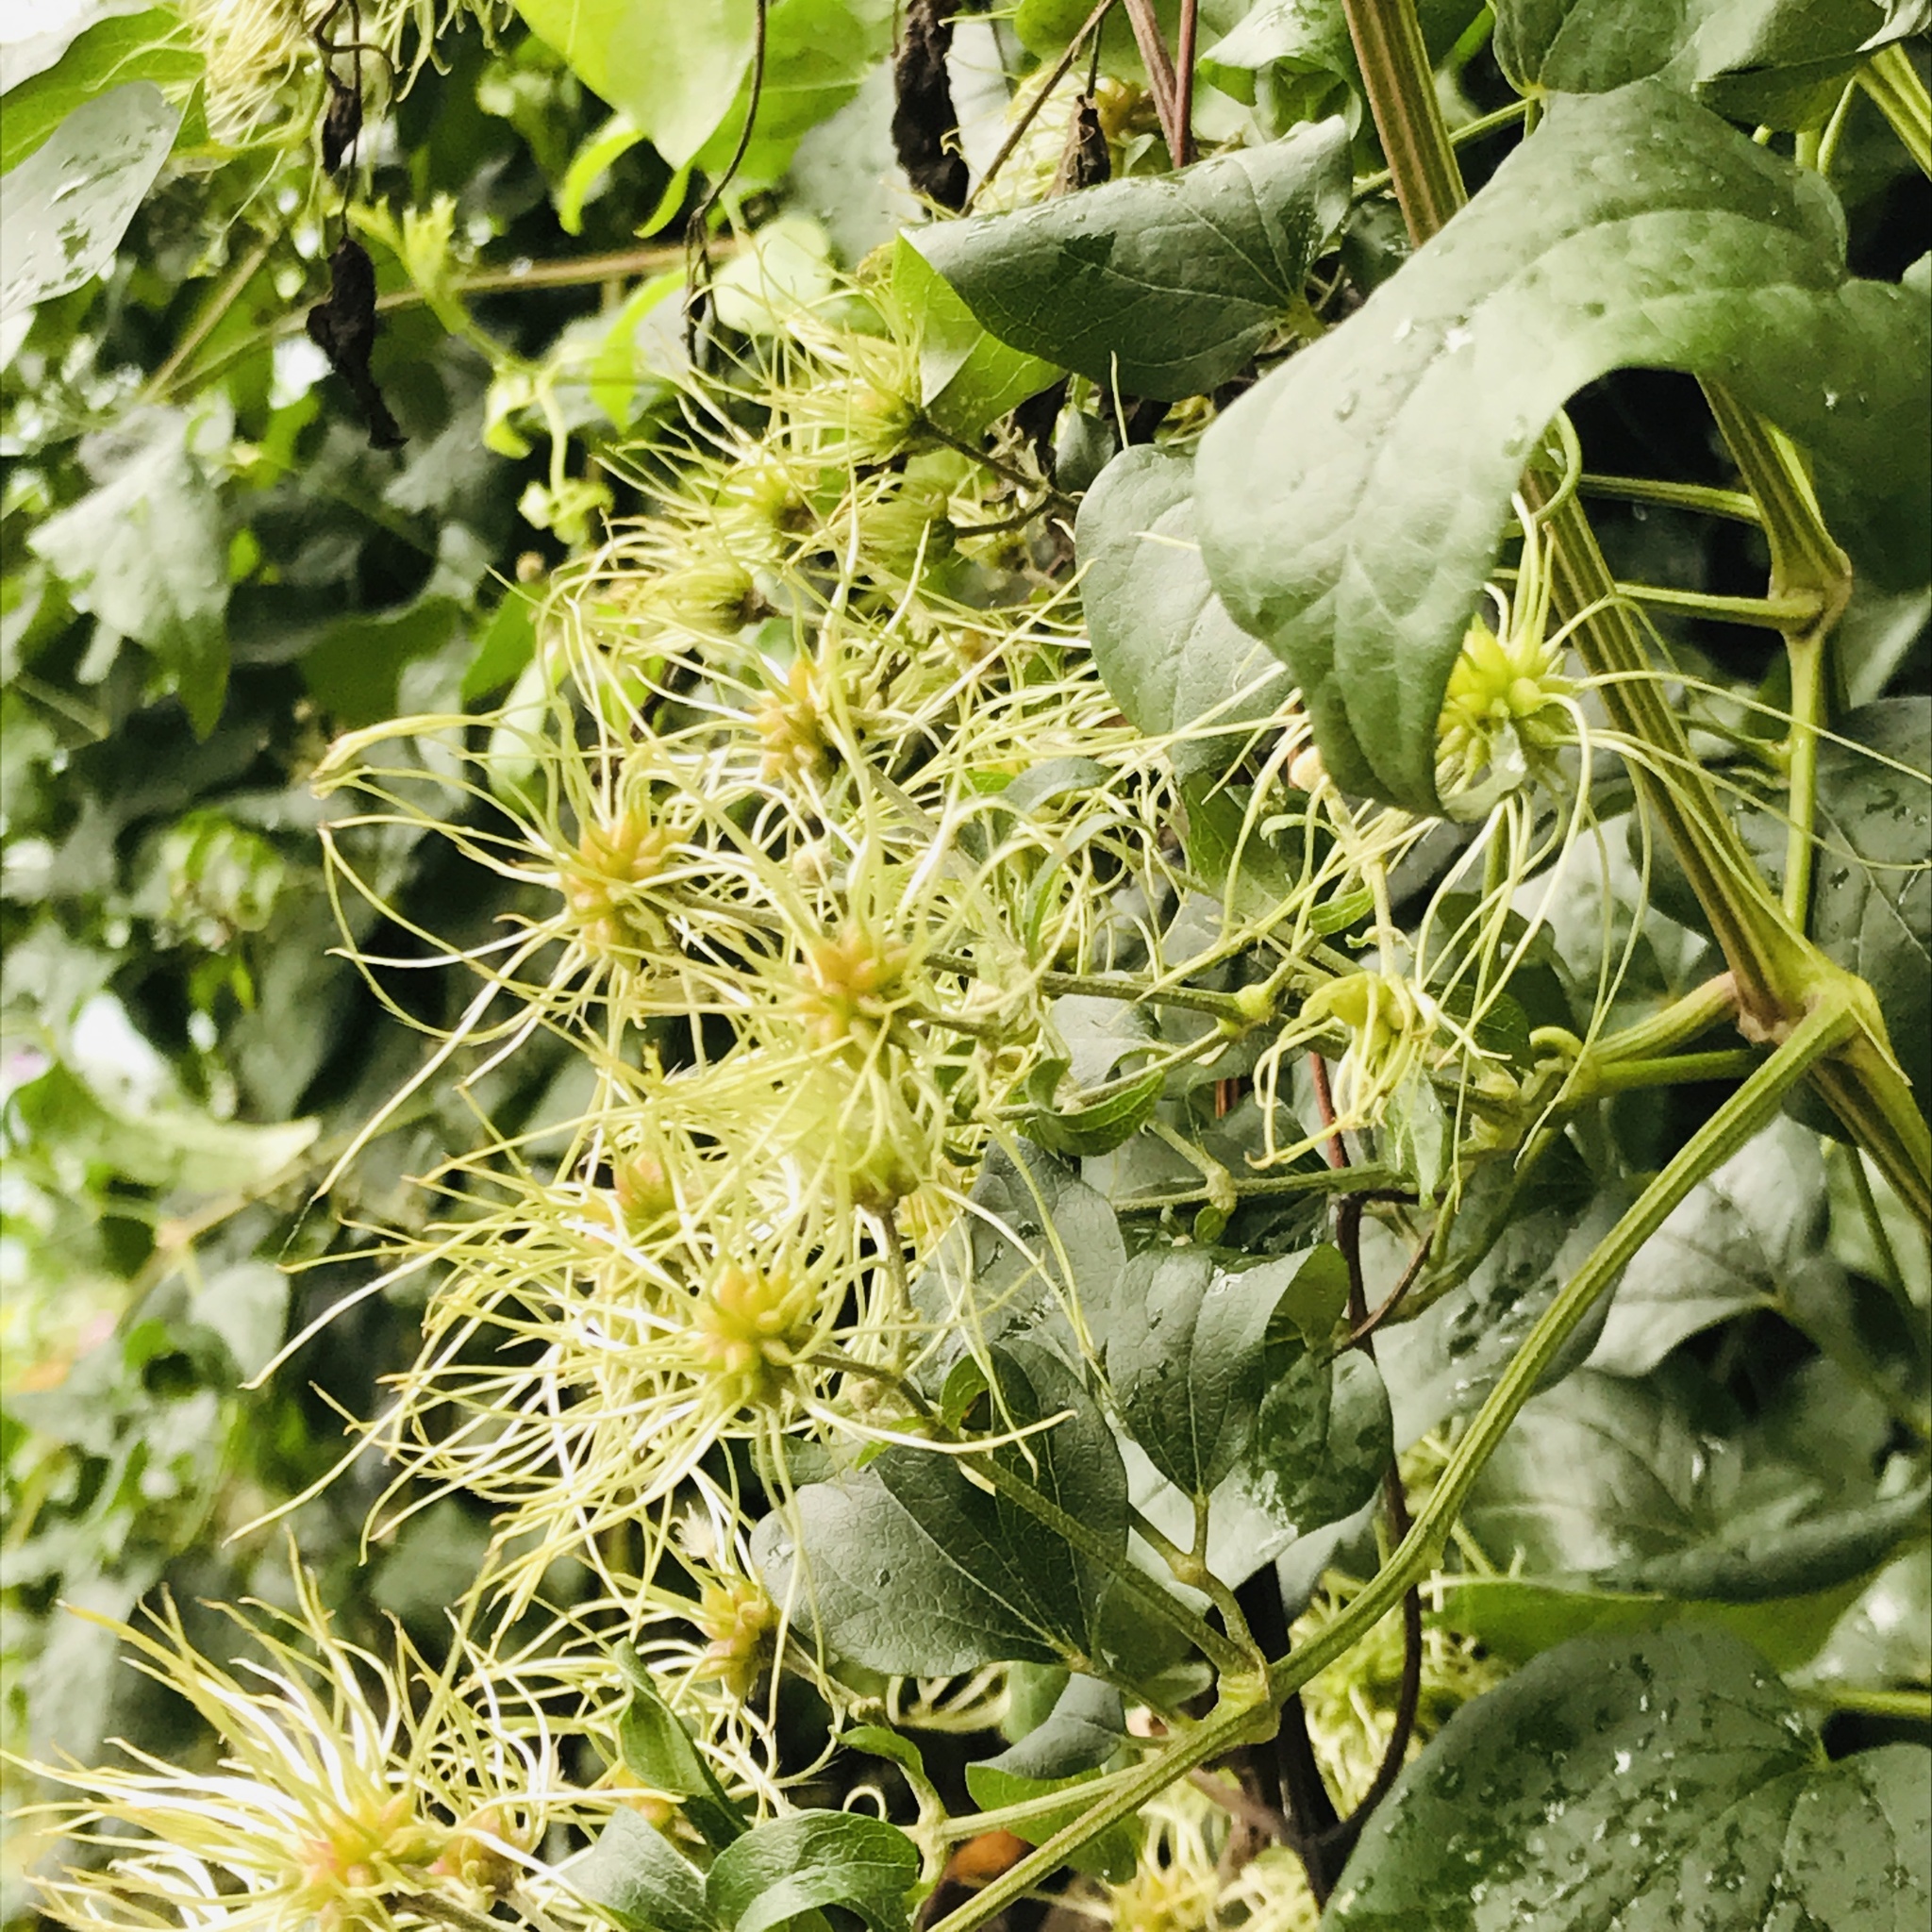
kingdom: Plantae
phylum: Tracheophyta
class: Magnoliopsida
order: Ranunculales
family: Ranunculaceae
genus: Clematis
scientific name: Clematis vitalba
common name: Evergreen clematis
